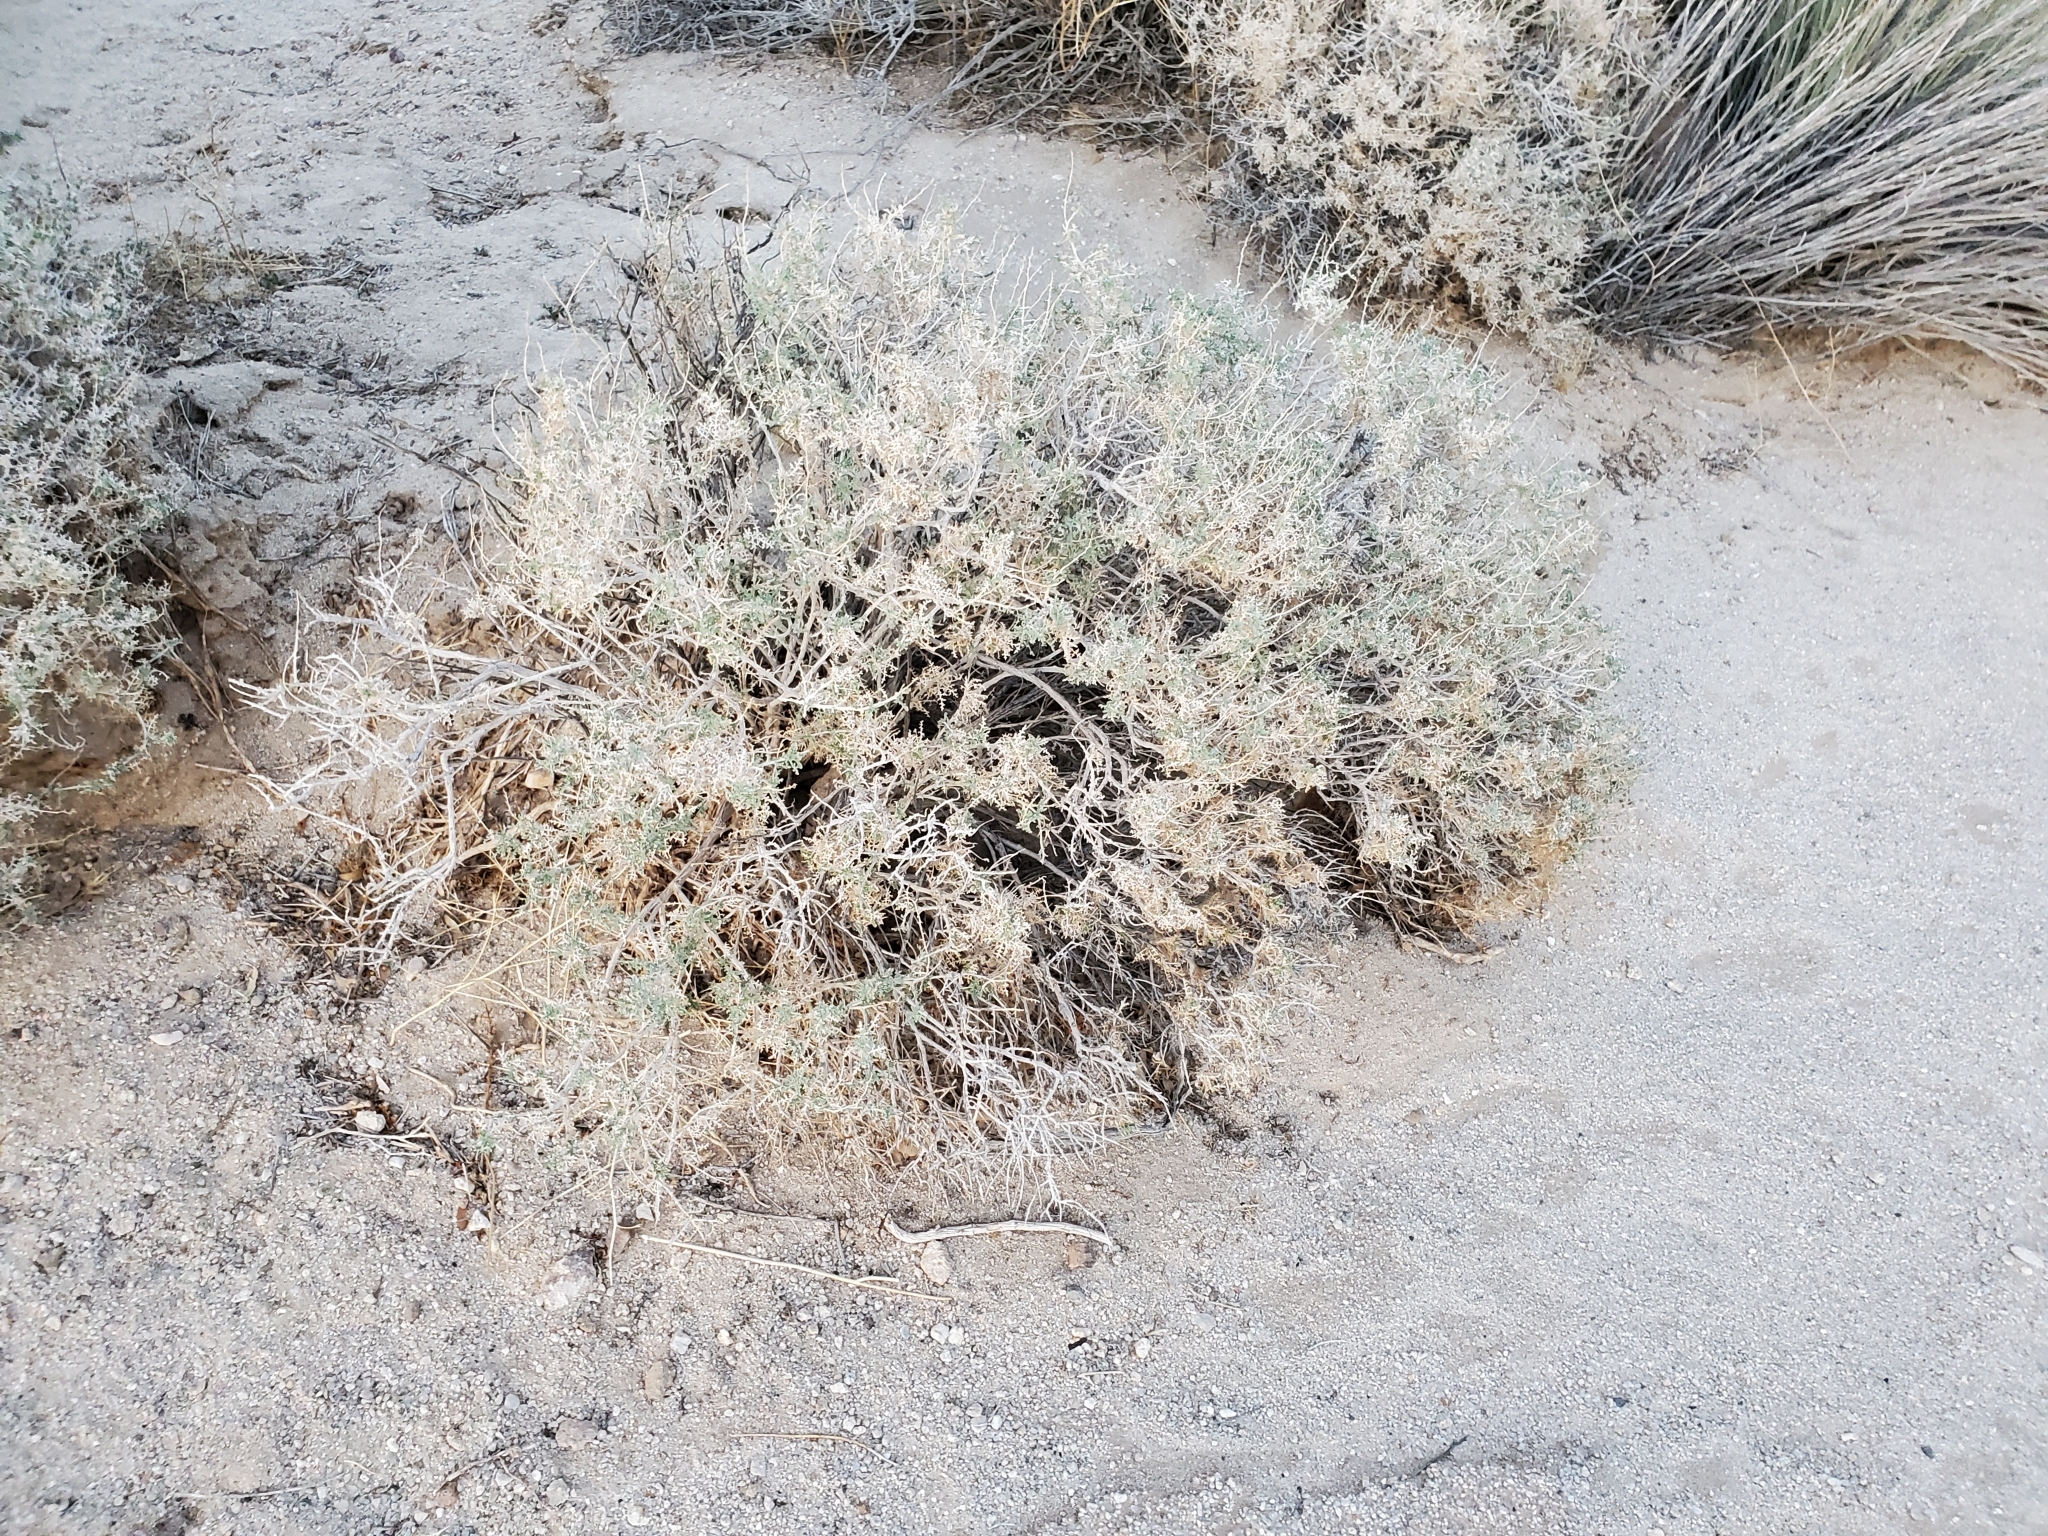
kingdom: Plantae
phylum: Tracheophyta
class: Magnoliopsida
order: Asterales
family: Asteraceae
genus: Ambrosia
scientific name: Ambrosia dumosa
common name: Bur-sage
